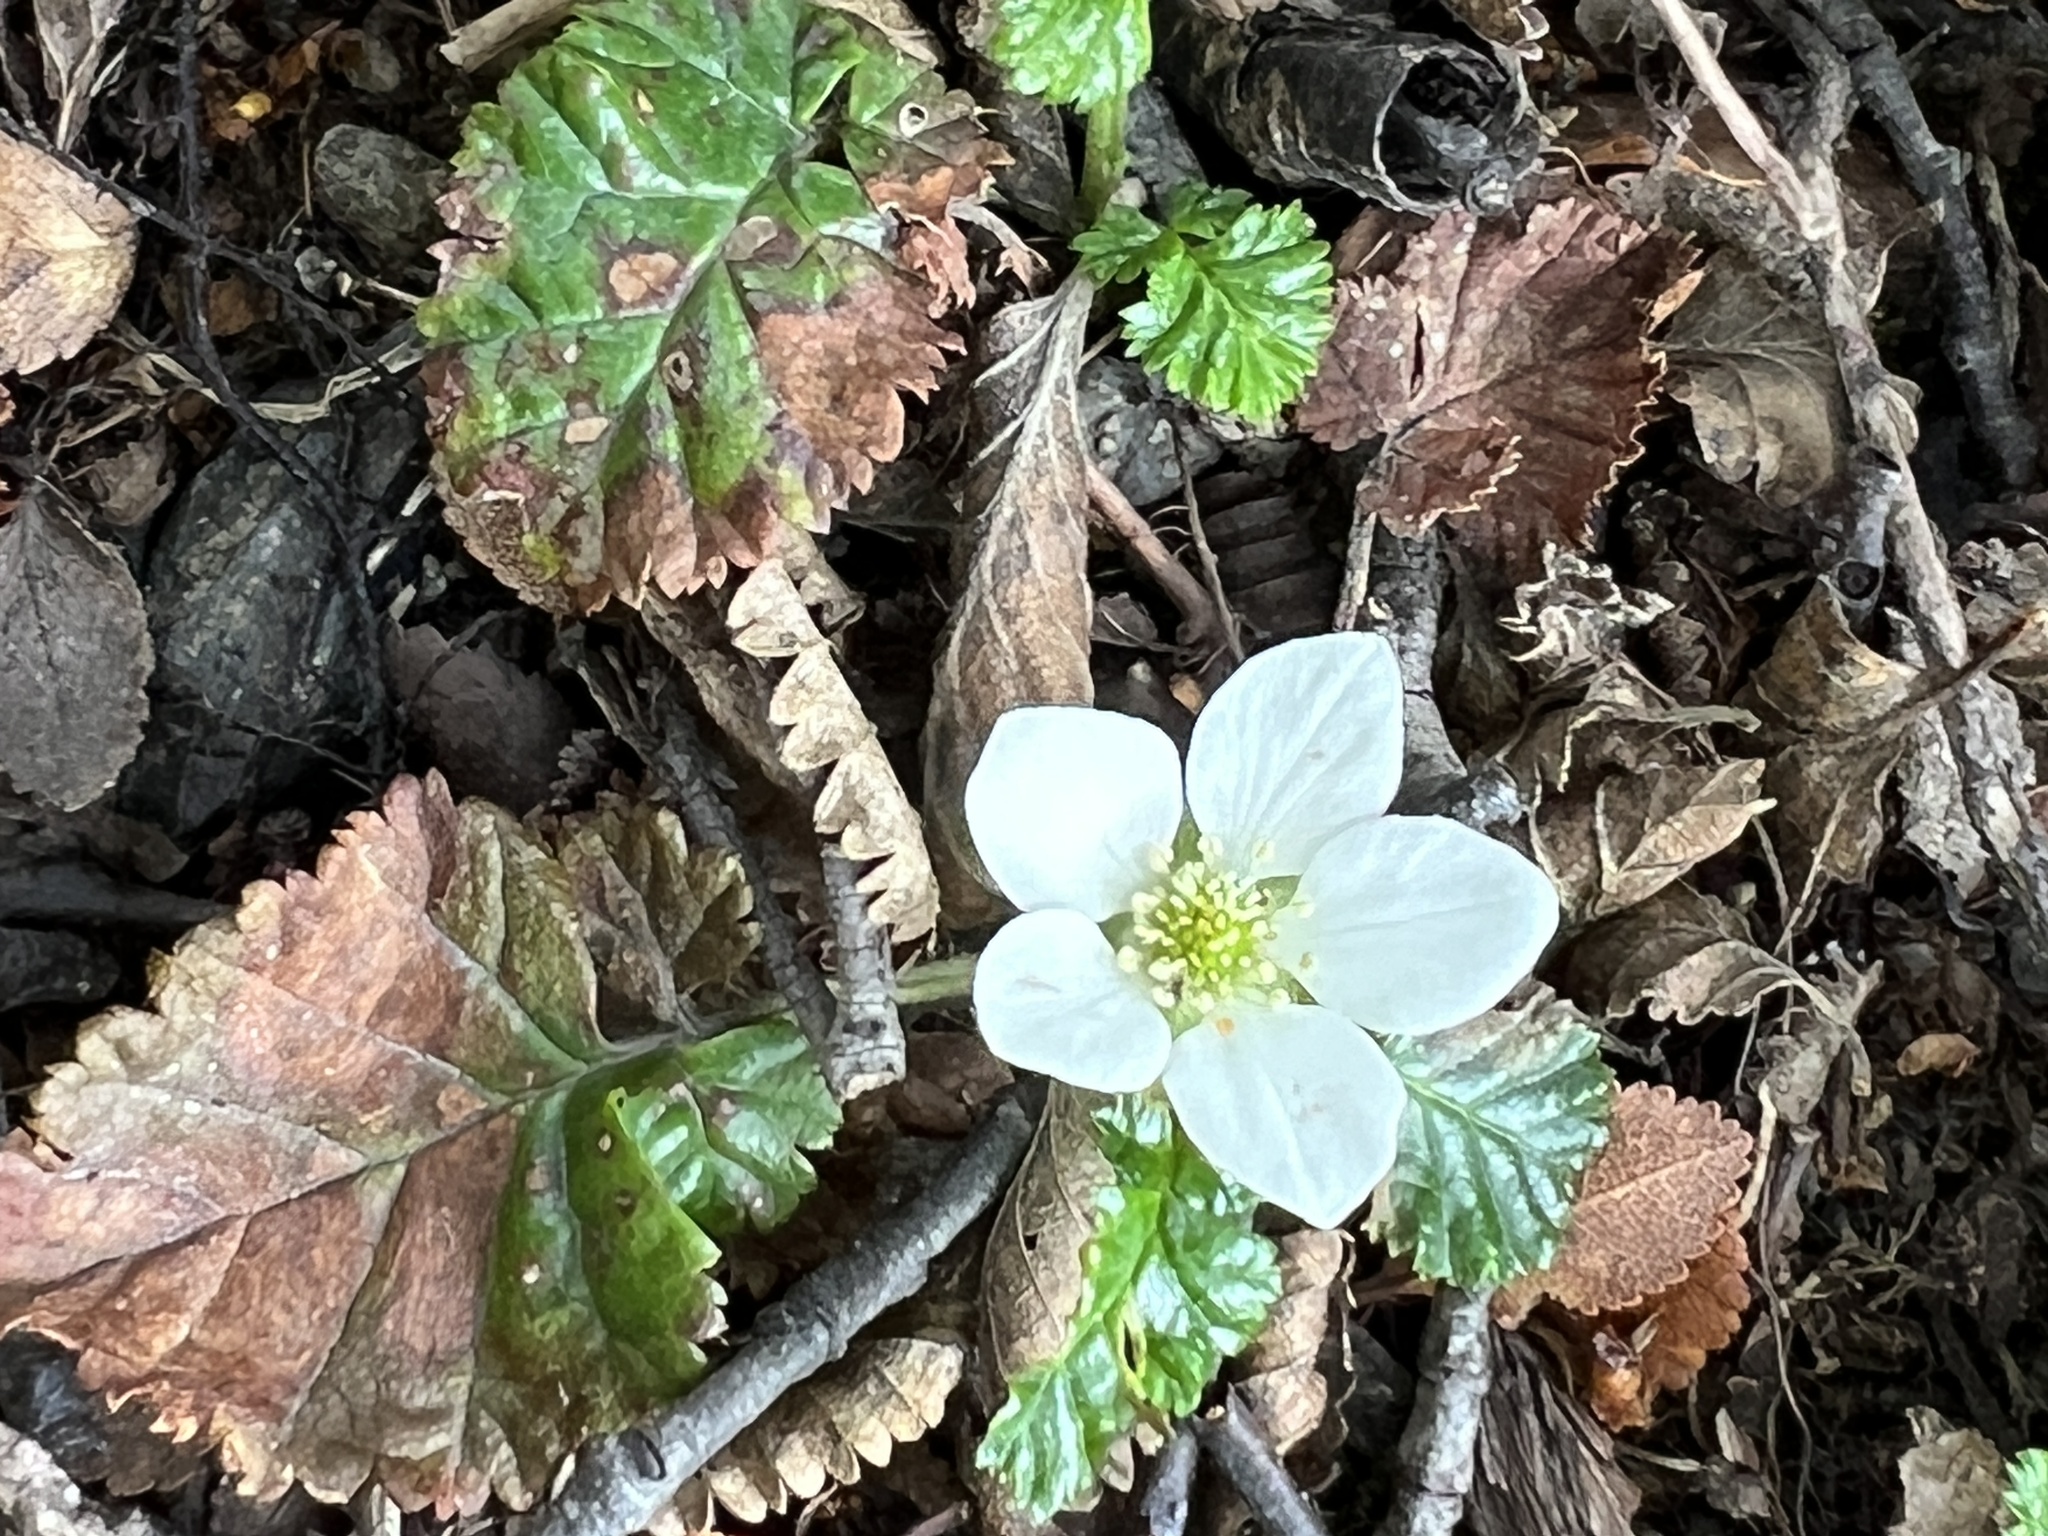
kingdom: Plantae
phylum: Tracheophyta
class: Magnoliopsida
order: Rosales
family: Rosaceae
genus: Rubus
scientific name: Rubus geoides
